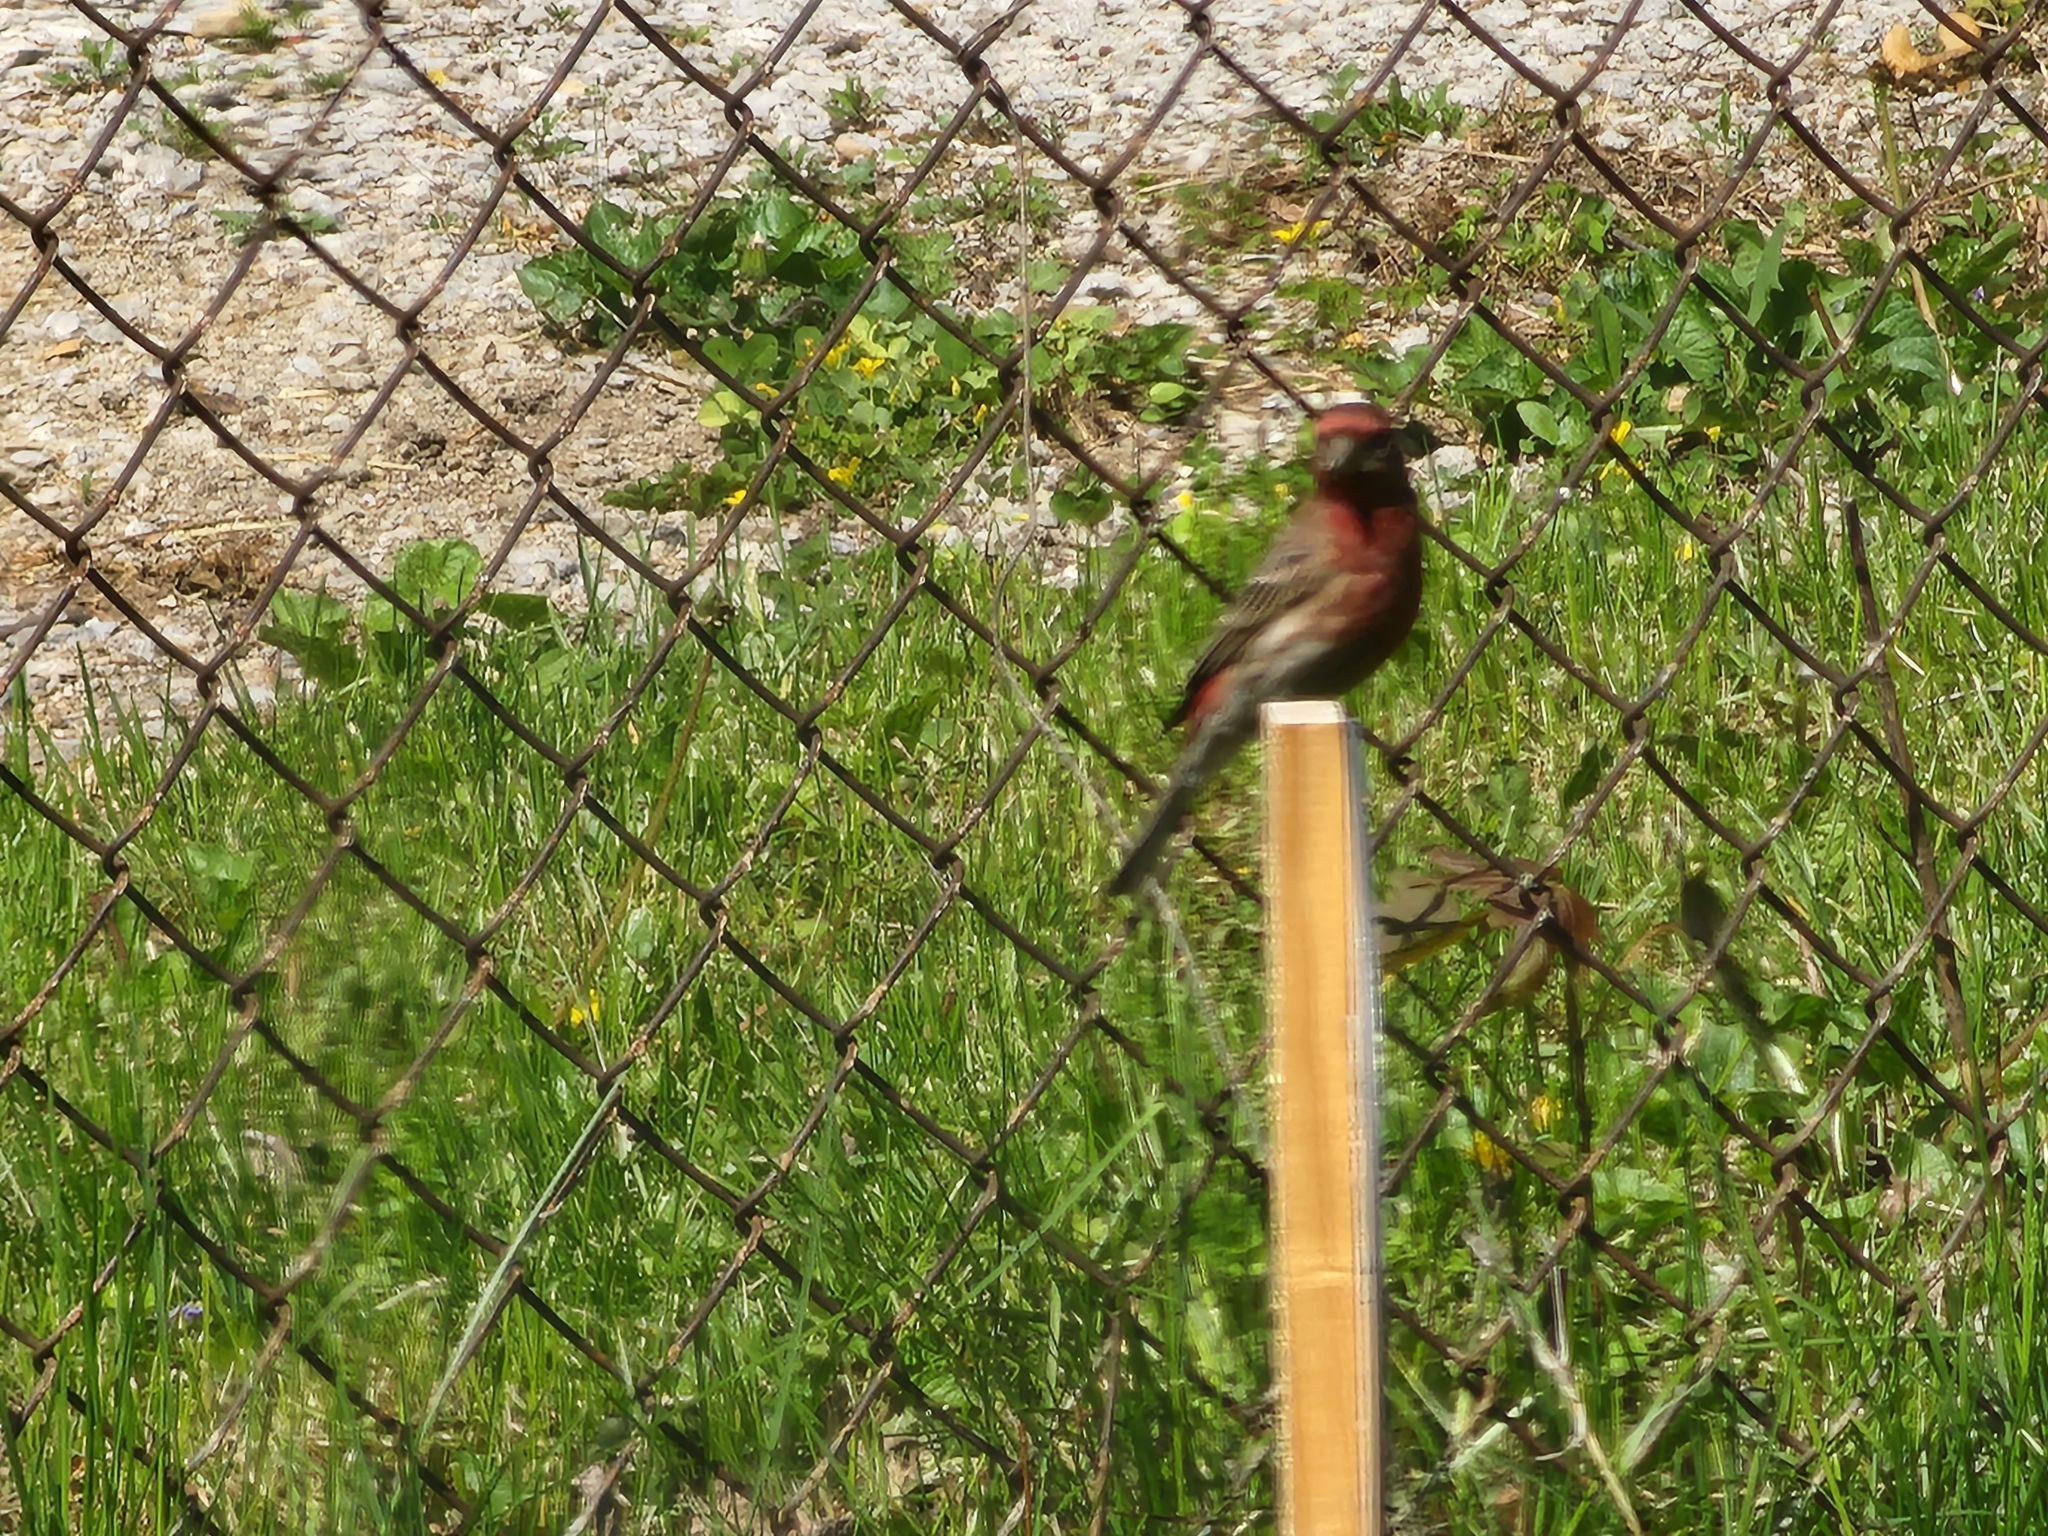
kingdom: Animalia
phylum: Chordata
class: Aves
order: Passeriformes
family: Fringillidae
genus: Haemorhous
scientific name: Haemorhous mexicanus
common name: House finch
